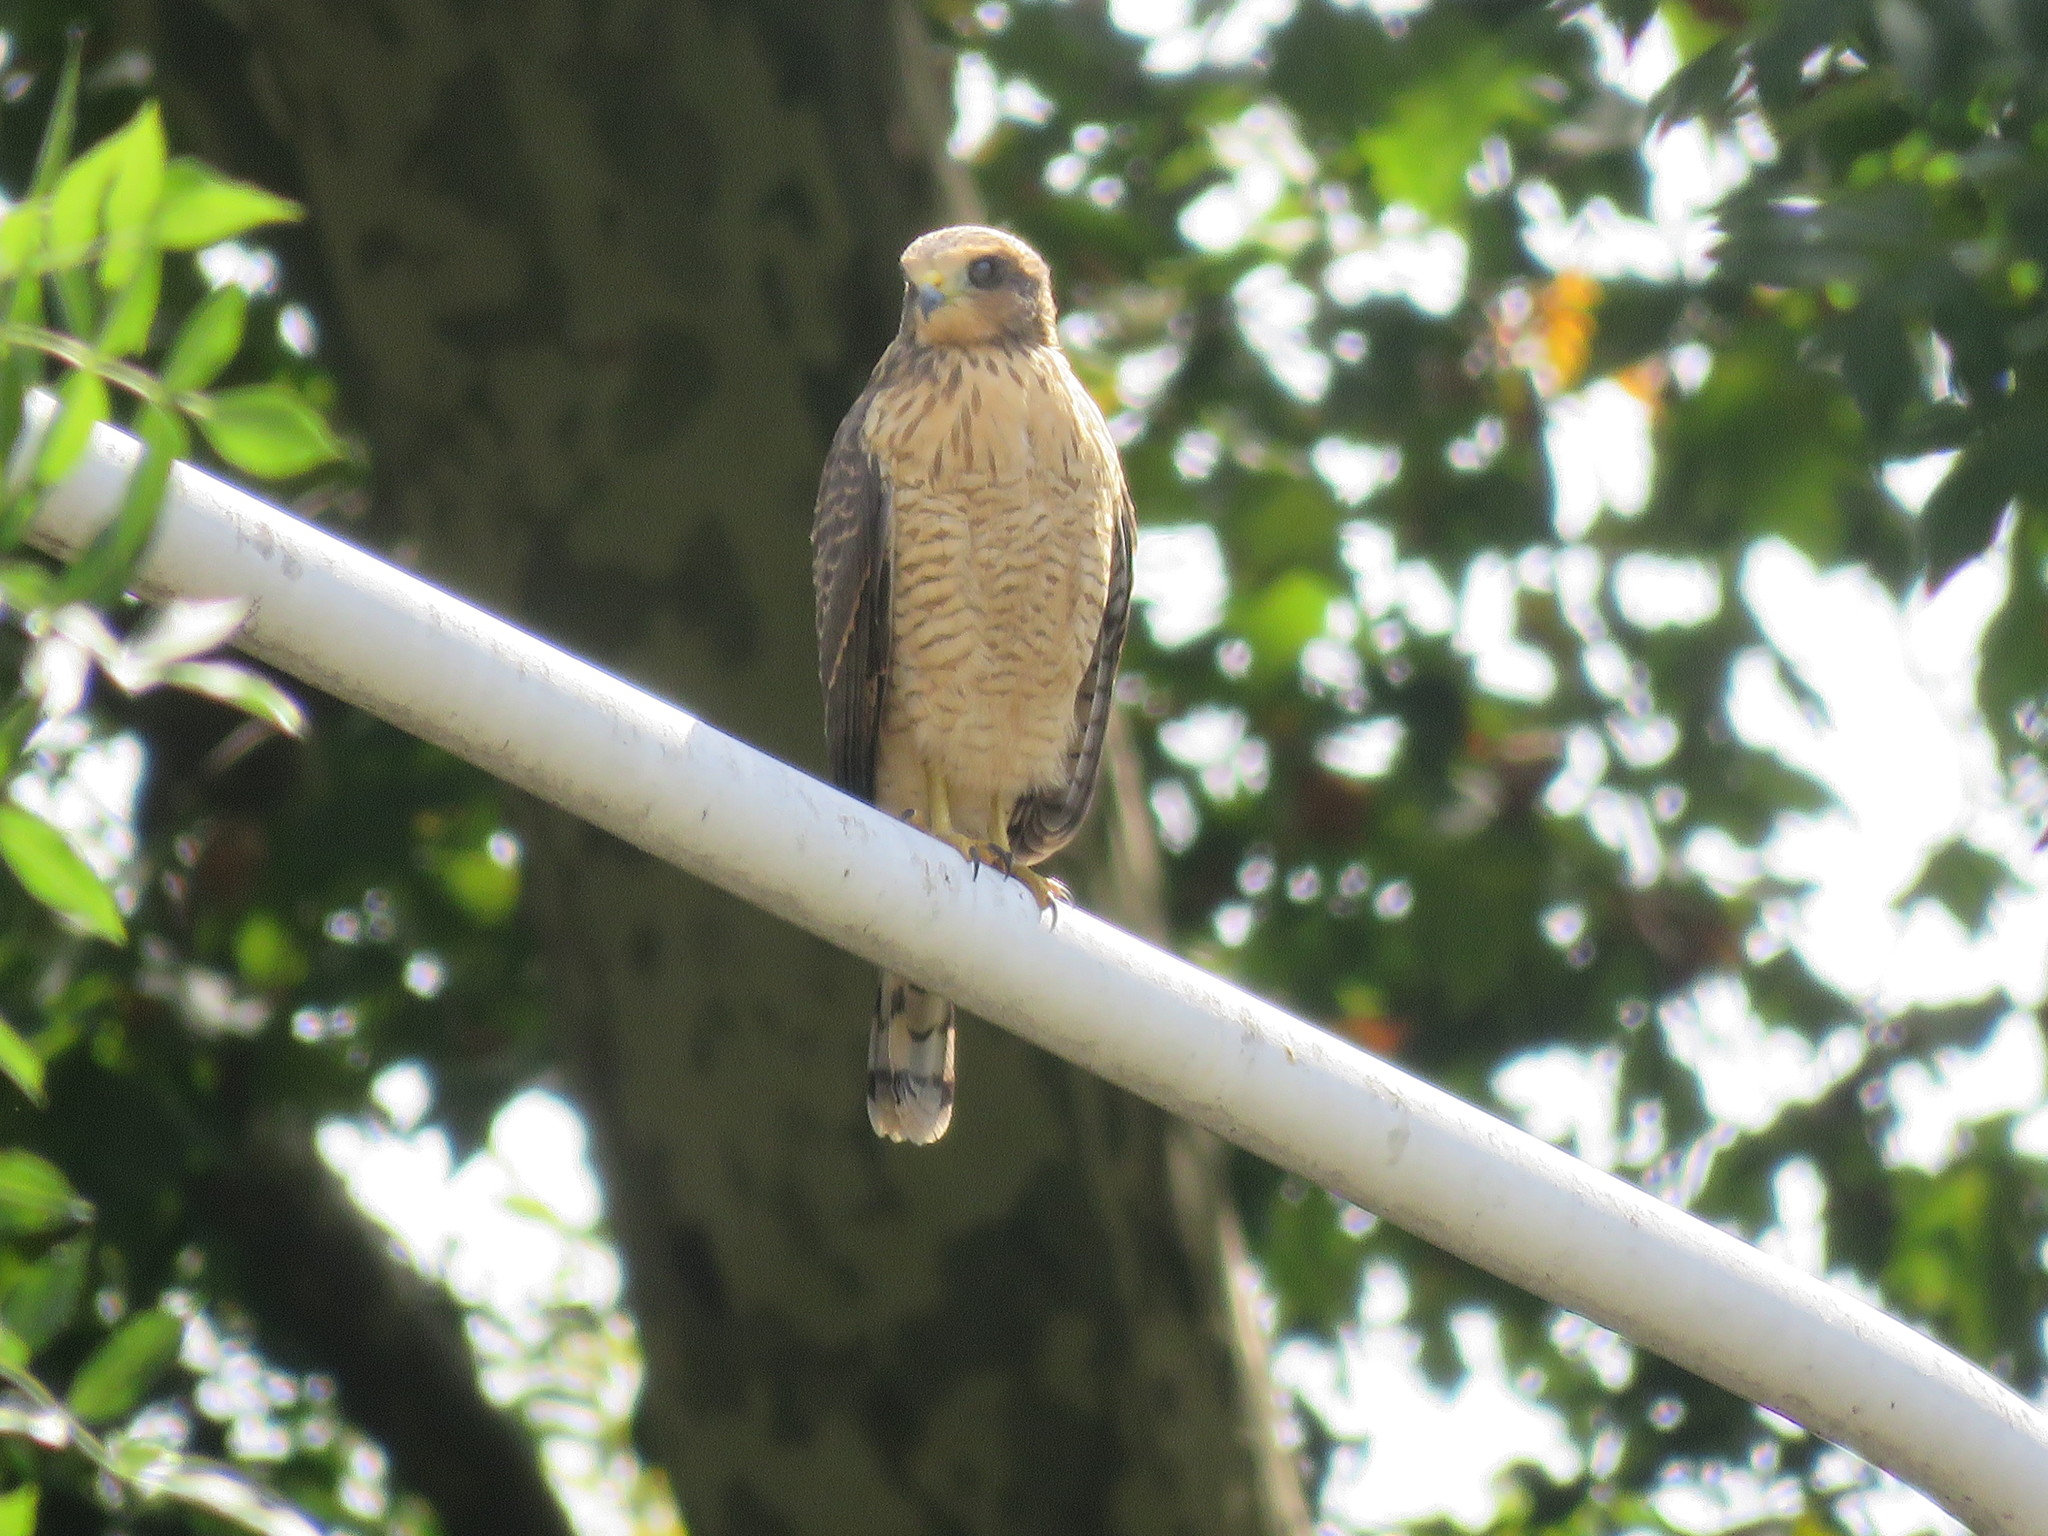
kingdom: Animalia
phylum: Chordata
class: Aves
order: Accipitriformes
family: Accipitridae
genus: Rupornis
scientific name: Rupornis magnirostris
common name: Roadside hawk
